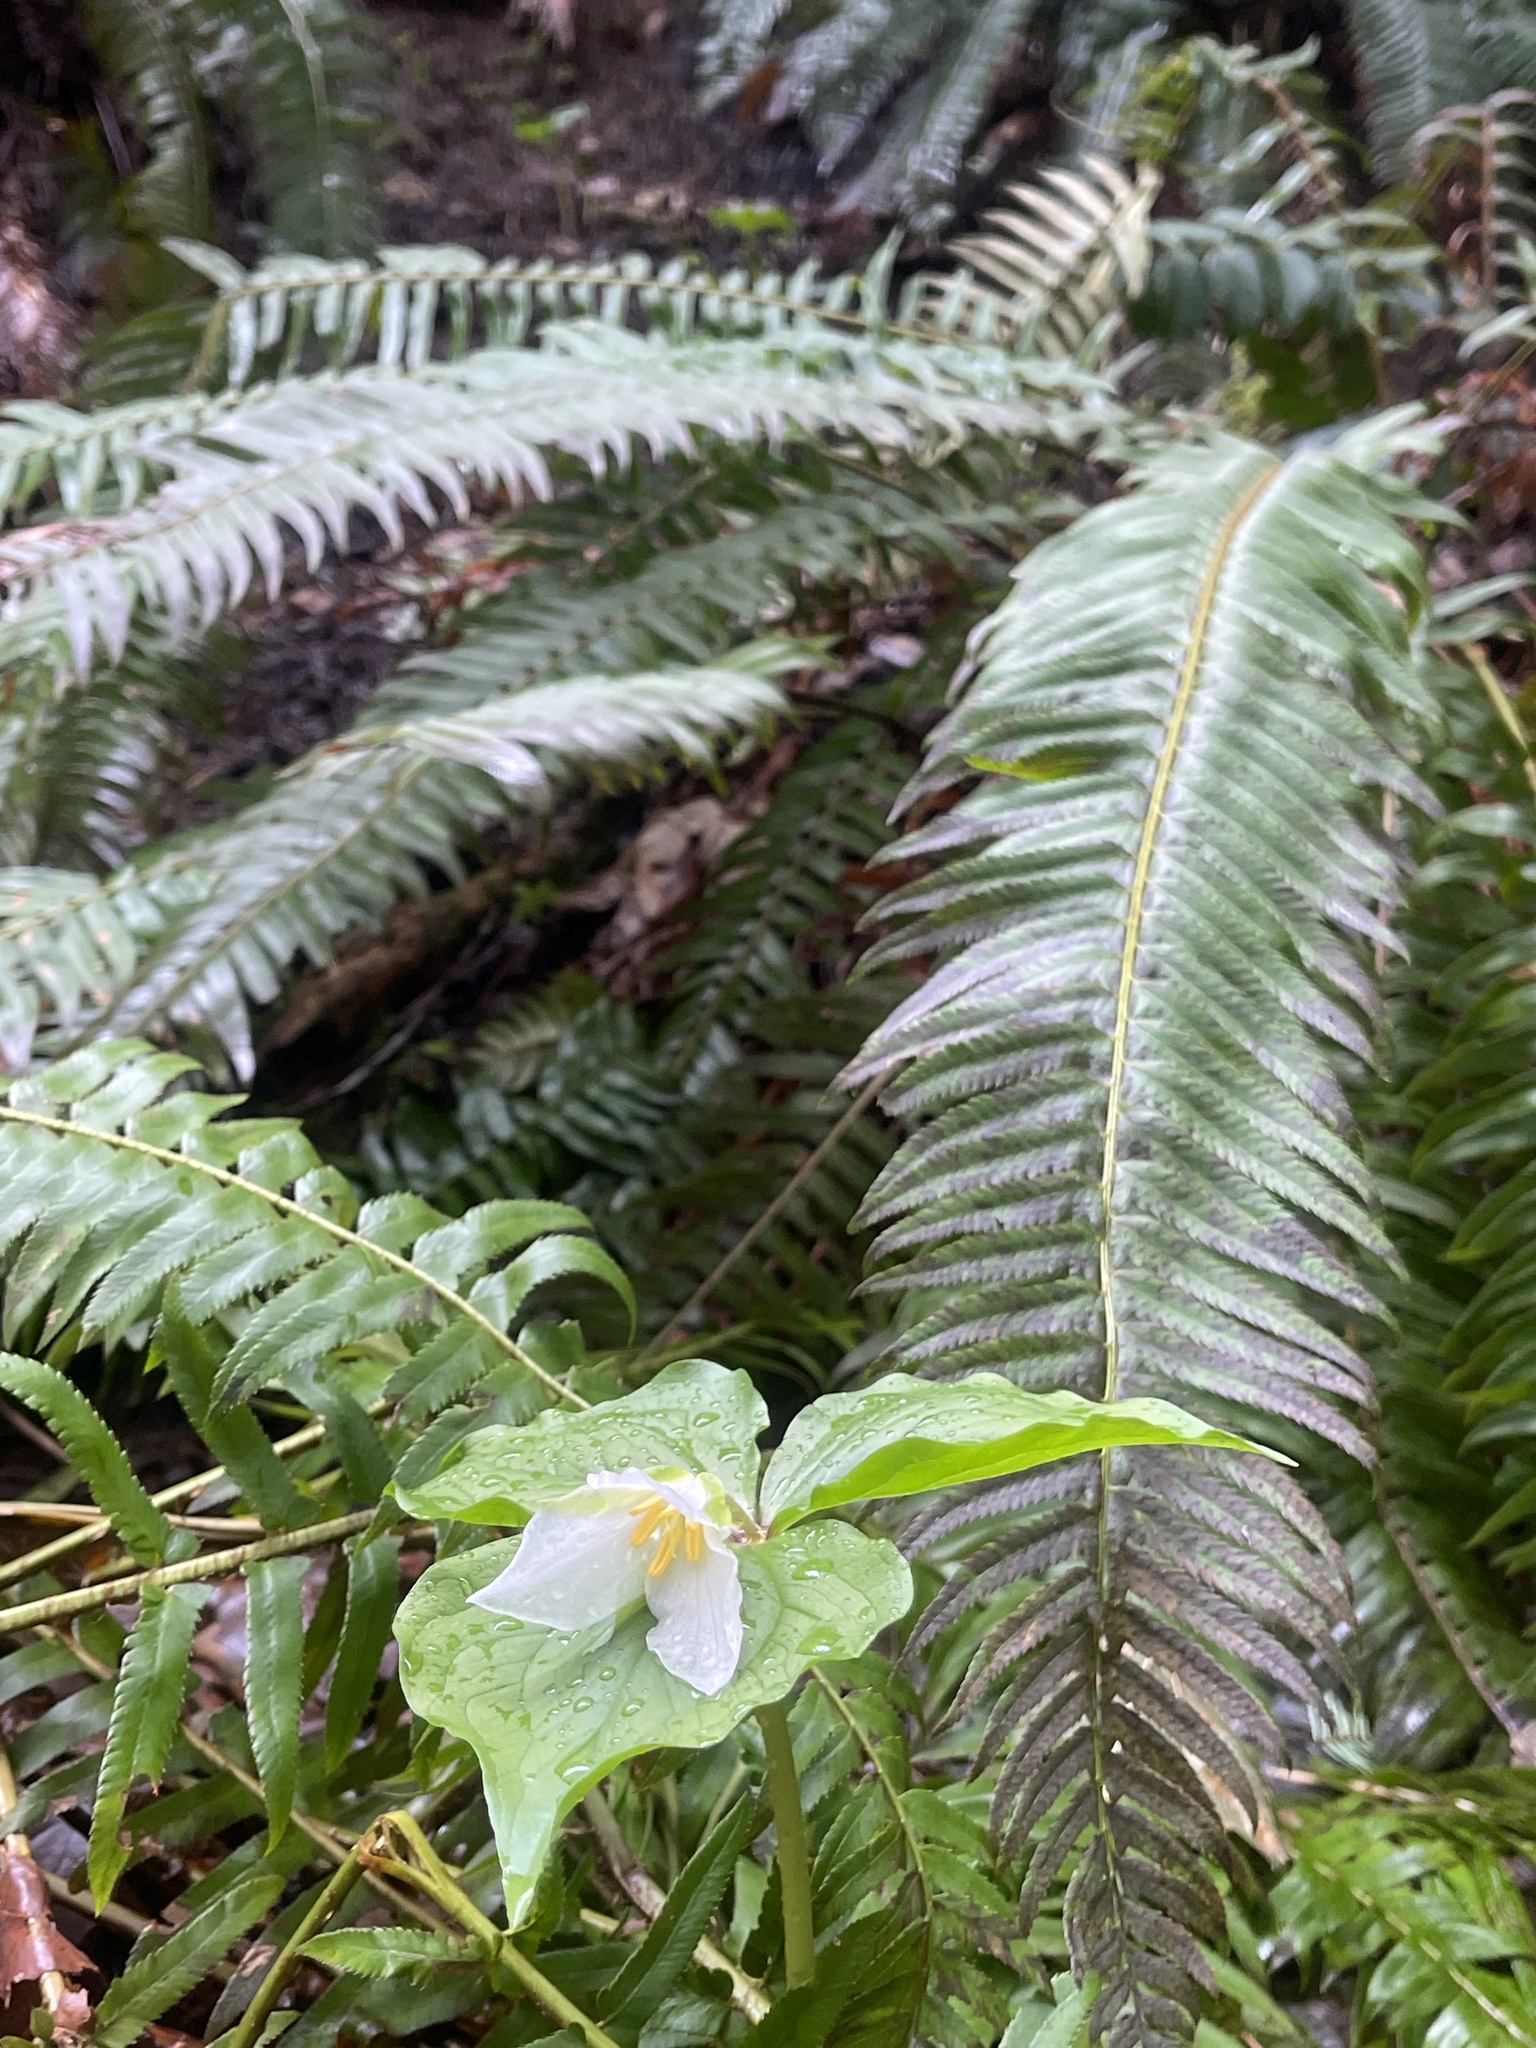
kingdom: Plantae
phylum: Tracheophyta
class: Liliopsida
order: Liliales
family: Melanthiaceae
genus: Trillium
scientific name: Trillium ovatum
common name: Pacific trillium
